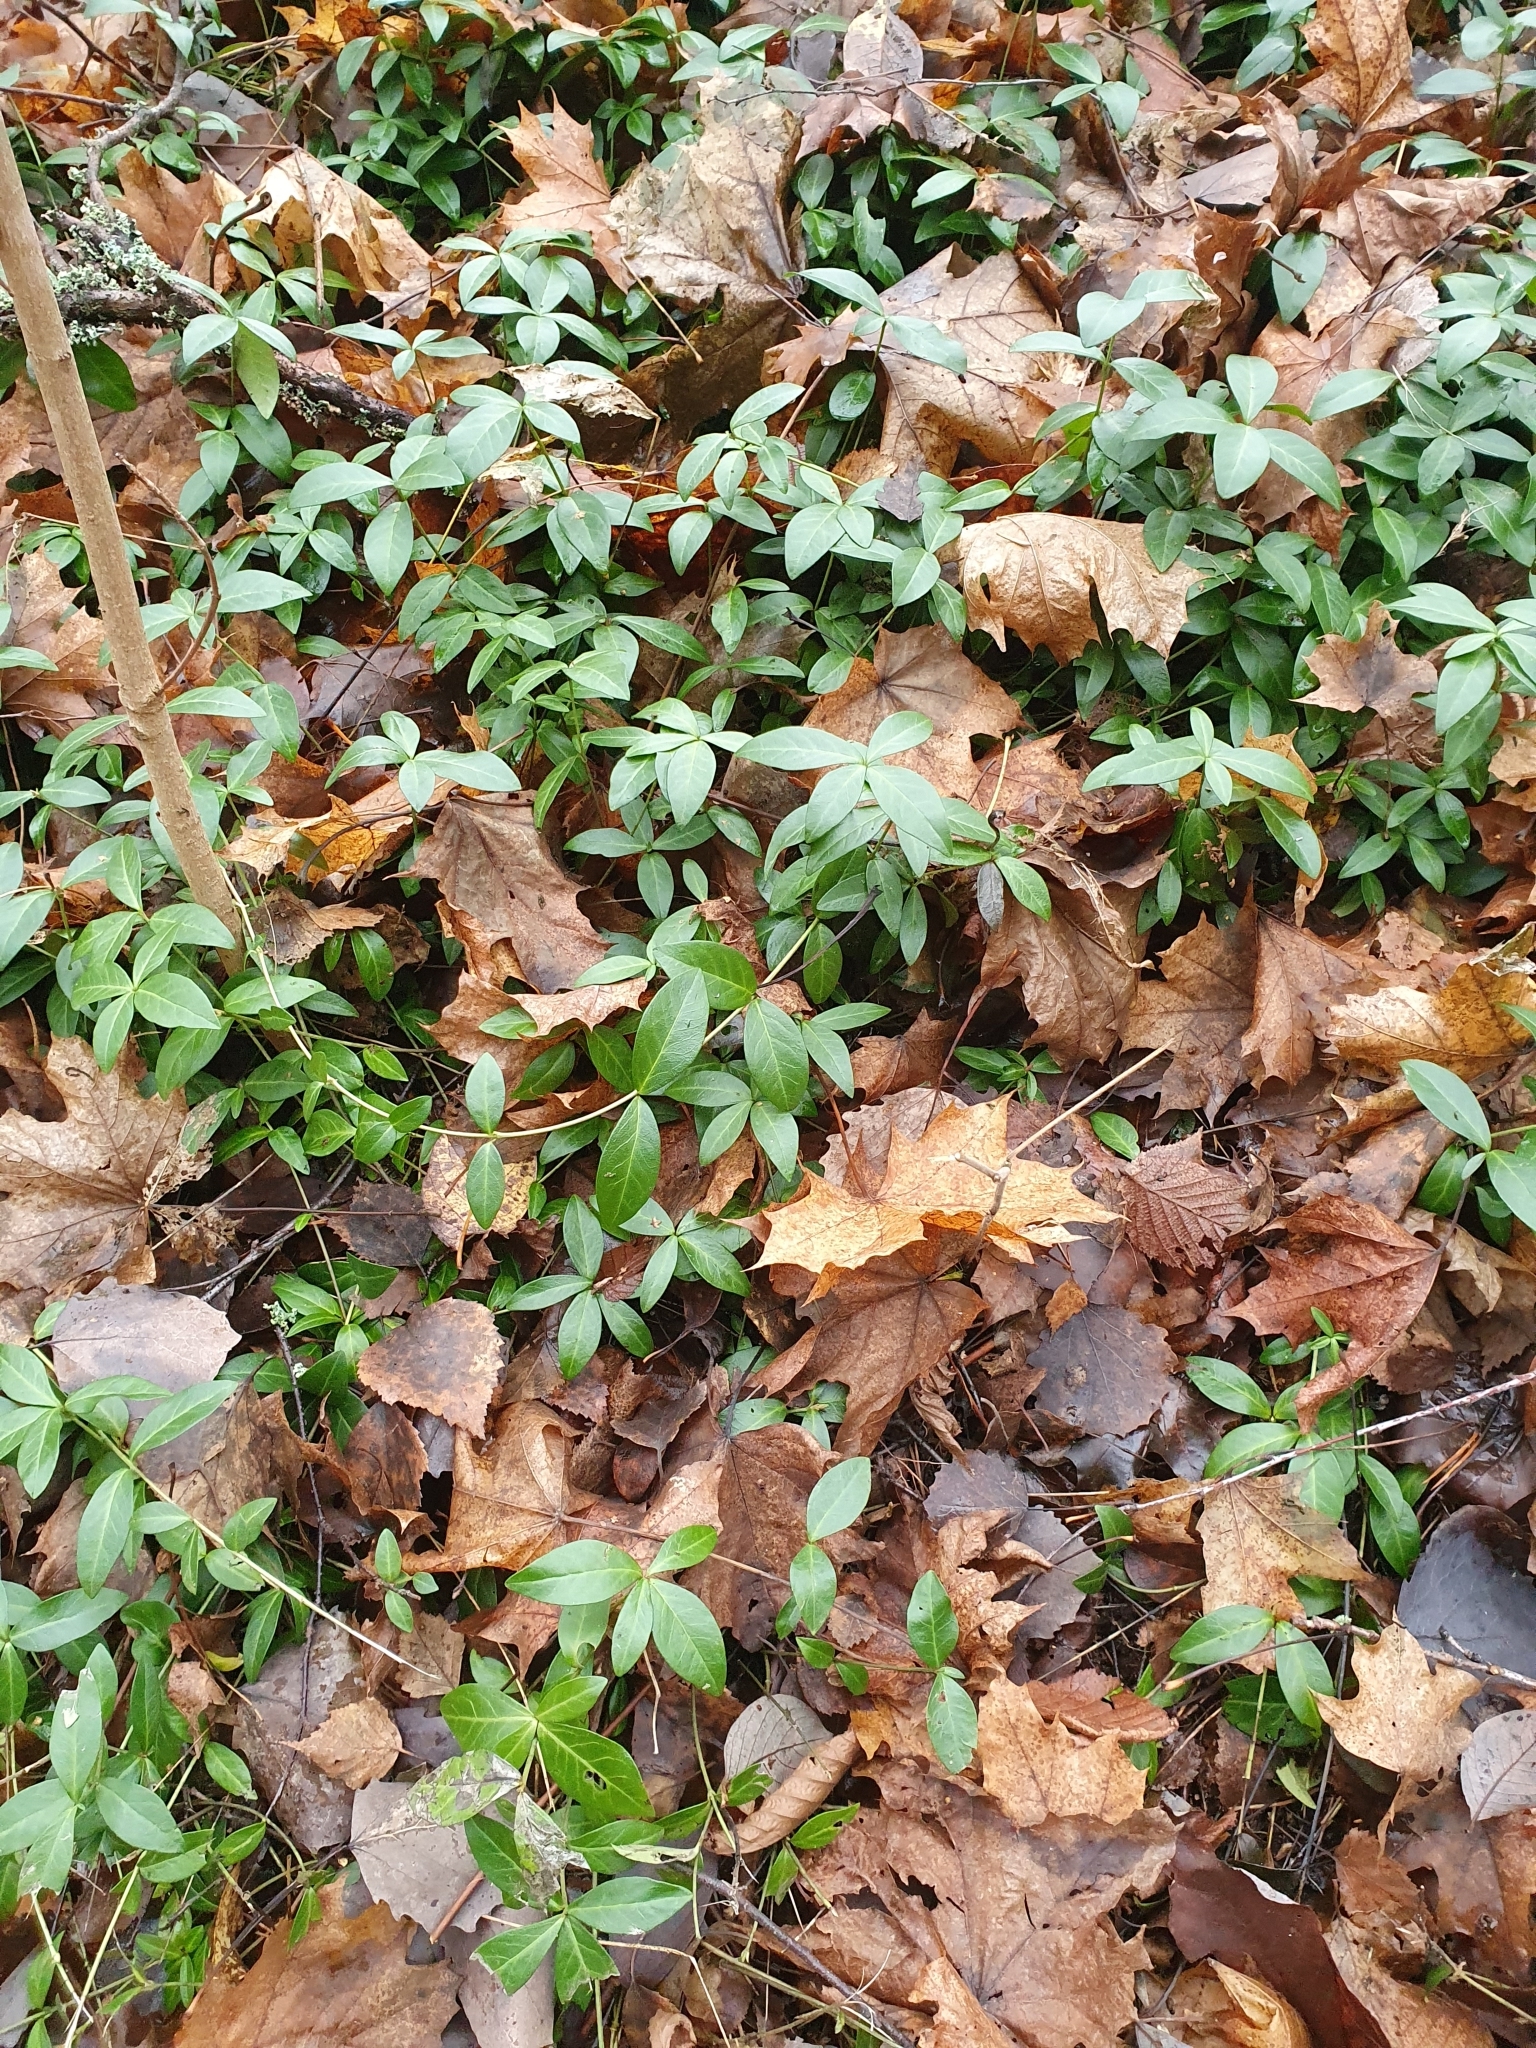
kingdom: Plantae
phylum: Tracheophyta
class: Magnoliopsida
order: Gentianales
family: Apocynaceae
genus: Vinca
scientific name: Vinca minor
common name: Lesser periwinkle
